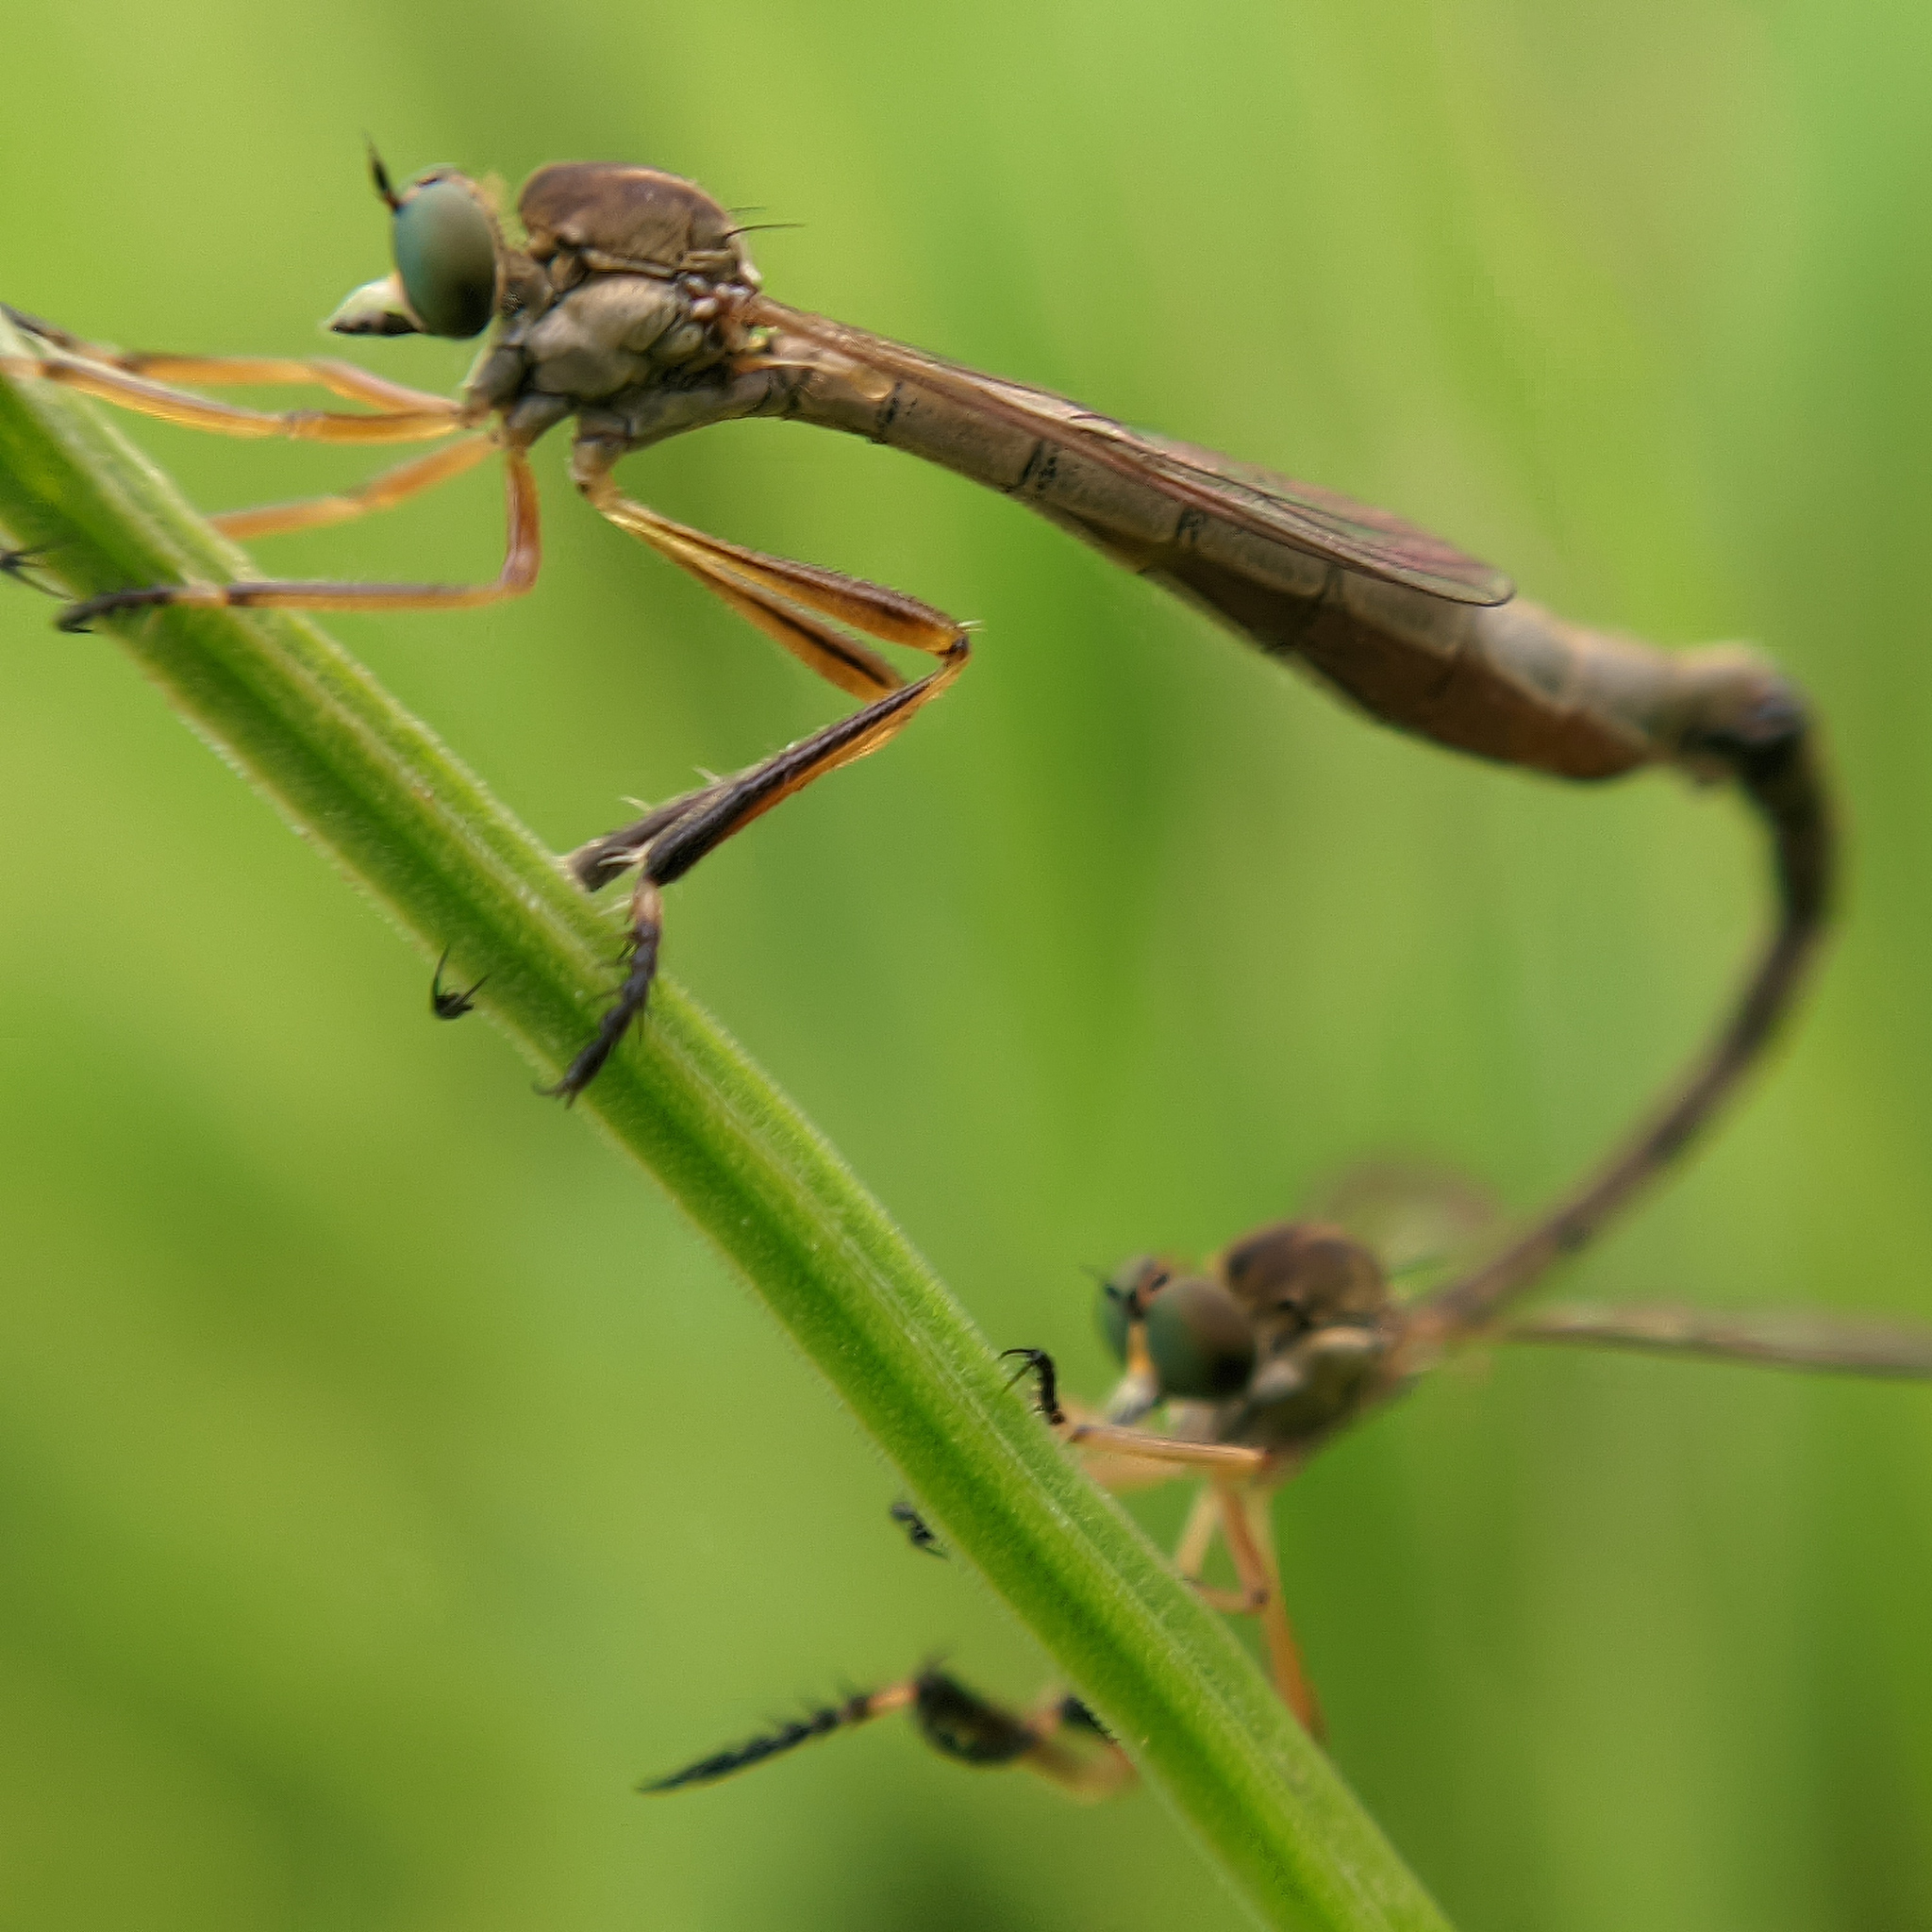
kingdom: Animalia
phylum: Arthropoda
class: Insecta
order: Diptera
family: Asilidae
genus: Leptogaster
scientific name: Leptogaster cylindrica
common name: Striped slender robberfly
